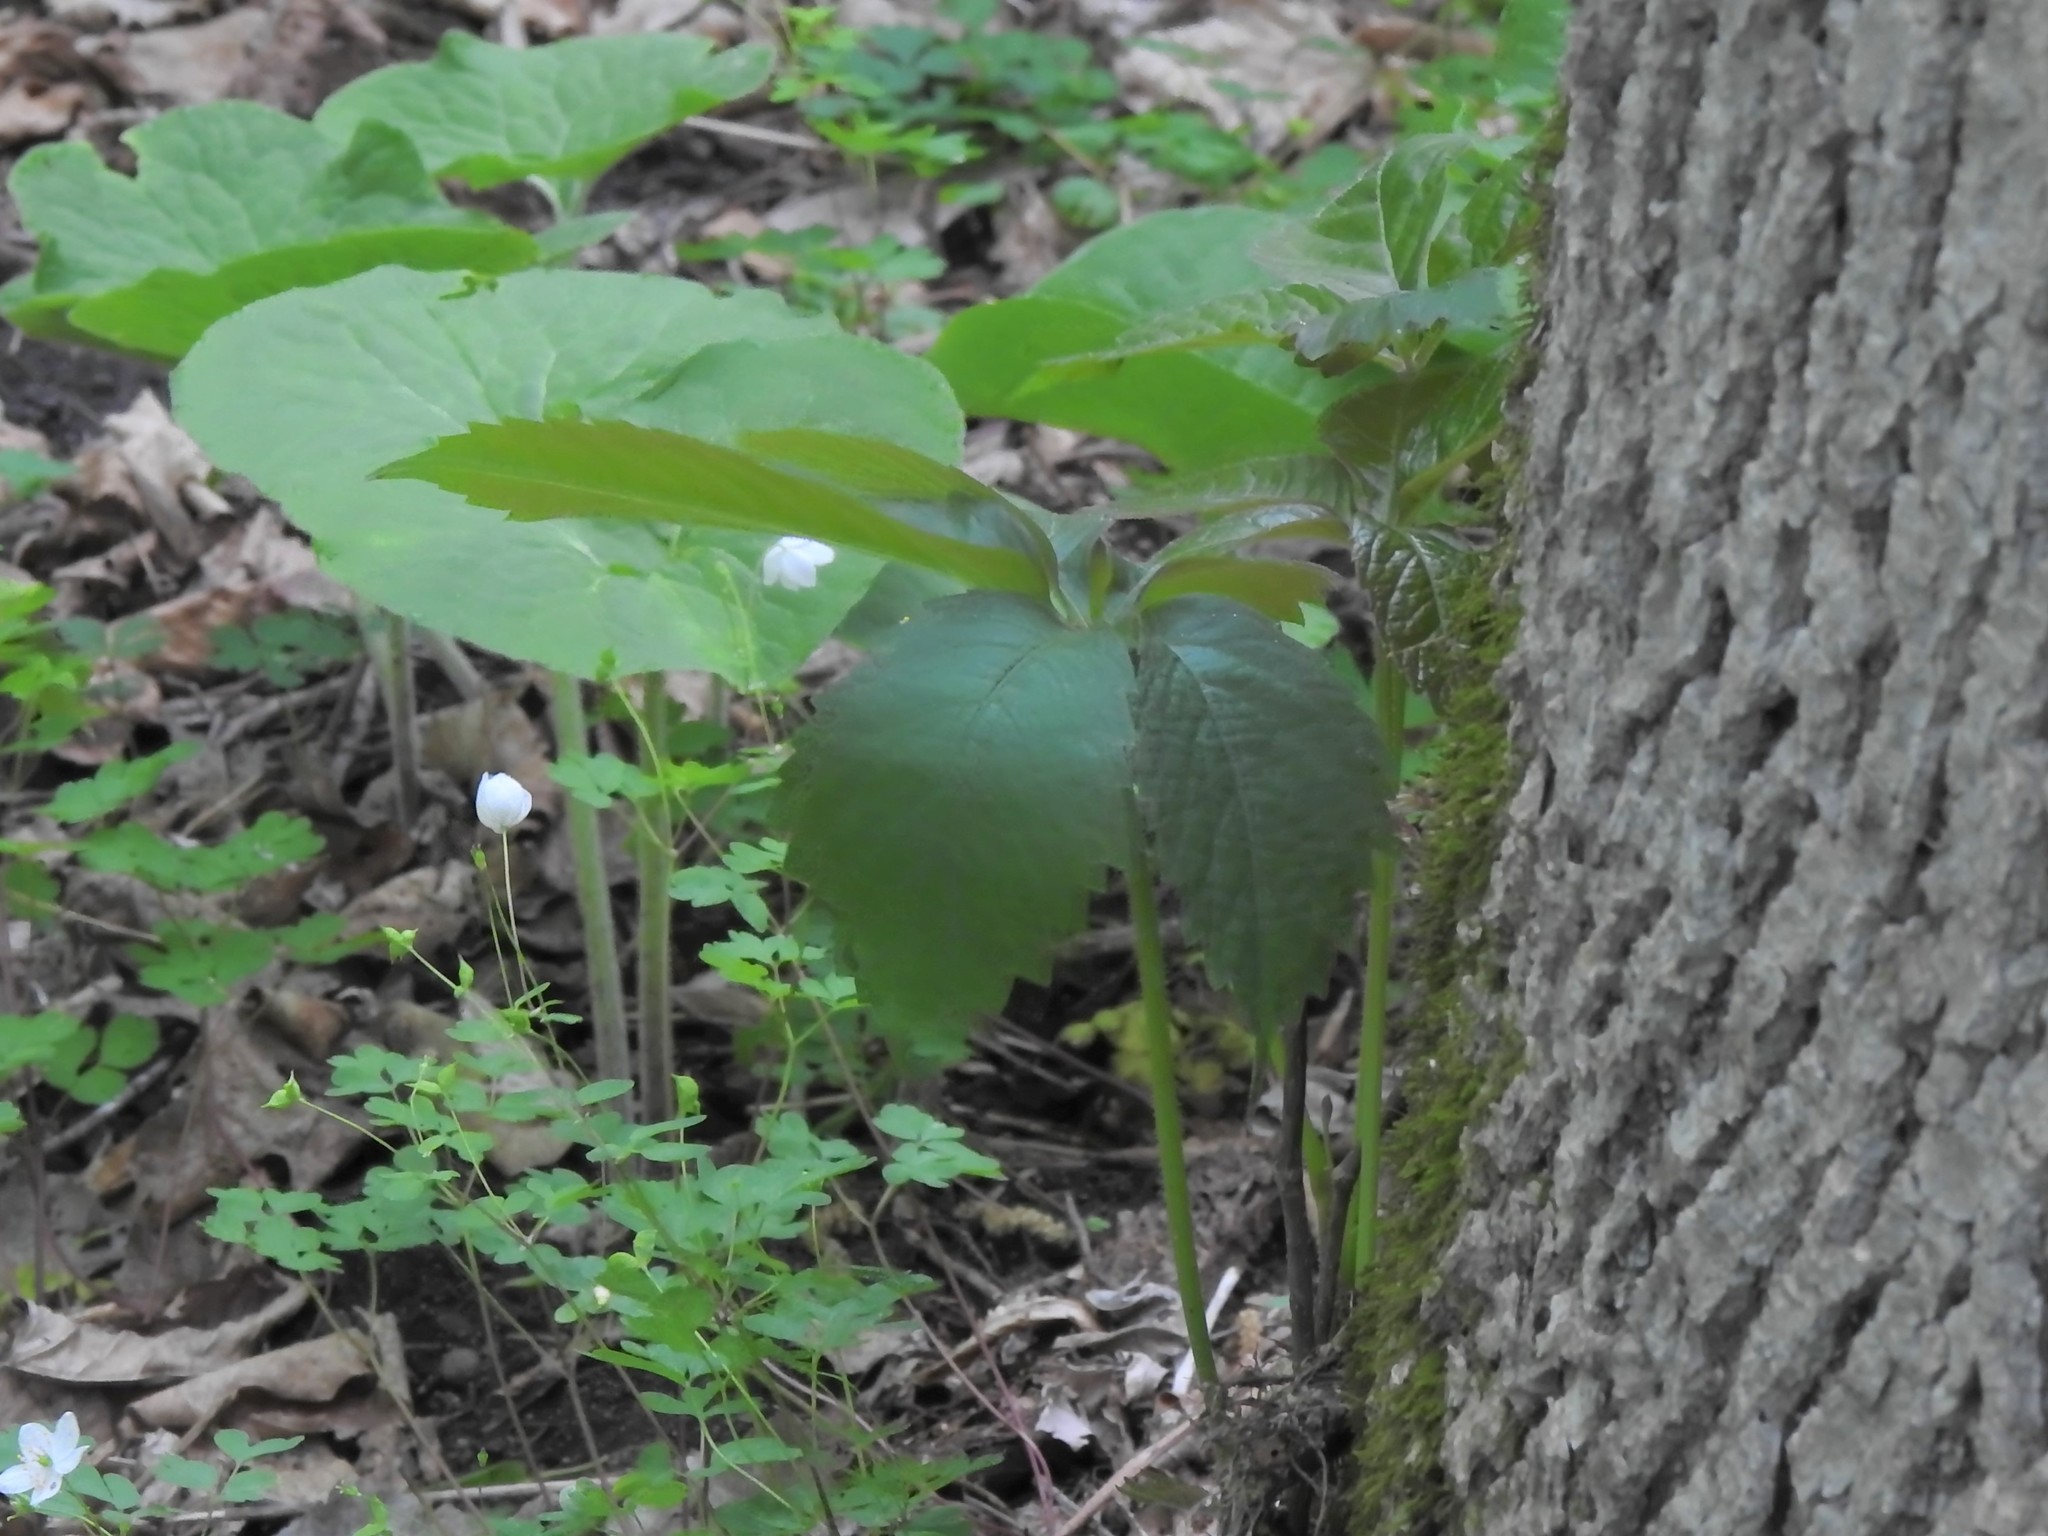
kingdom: Plantae
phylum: Tracheophyta
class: Magnoliopsida
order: Vitales
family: Vitaceae
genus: Parthenocissus
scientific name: Parthenocissus
